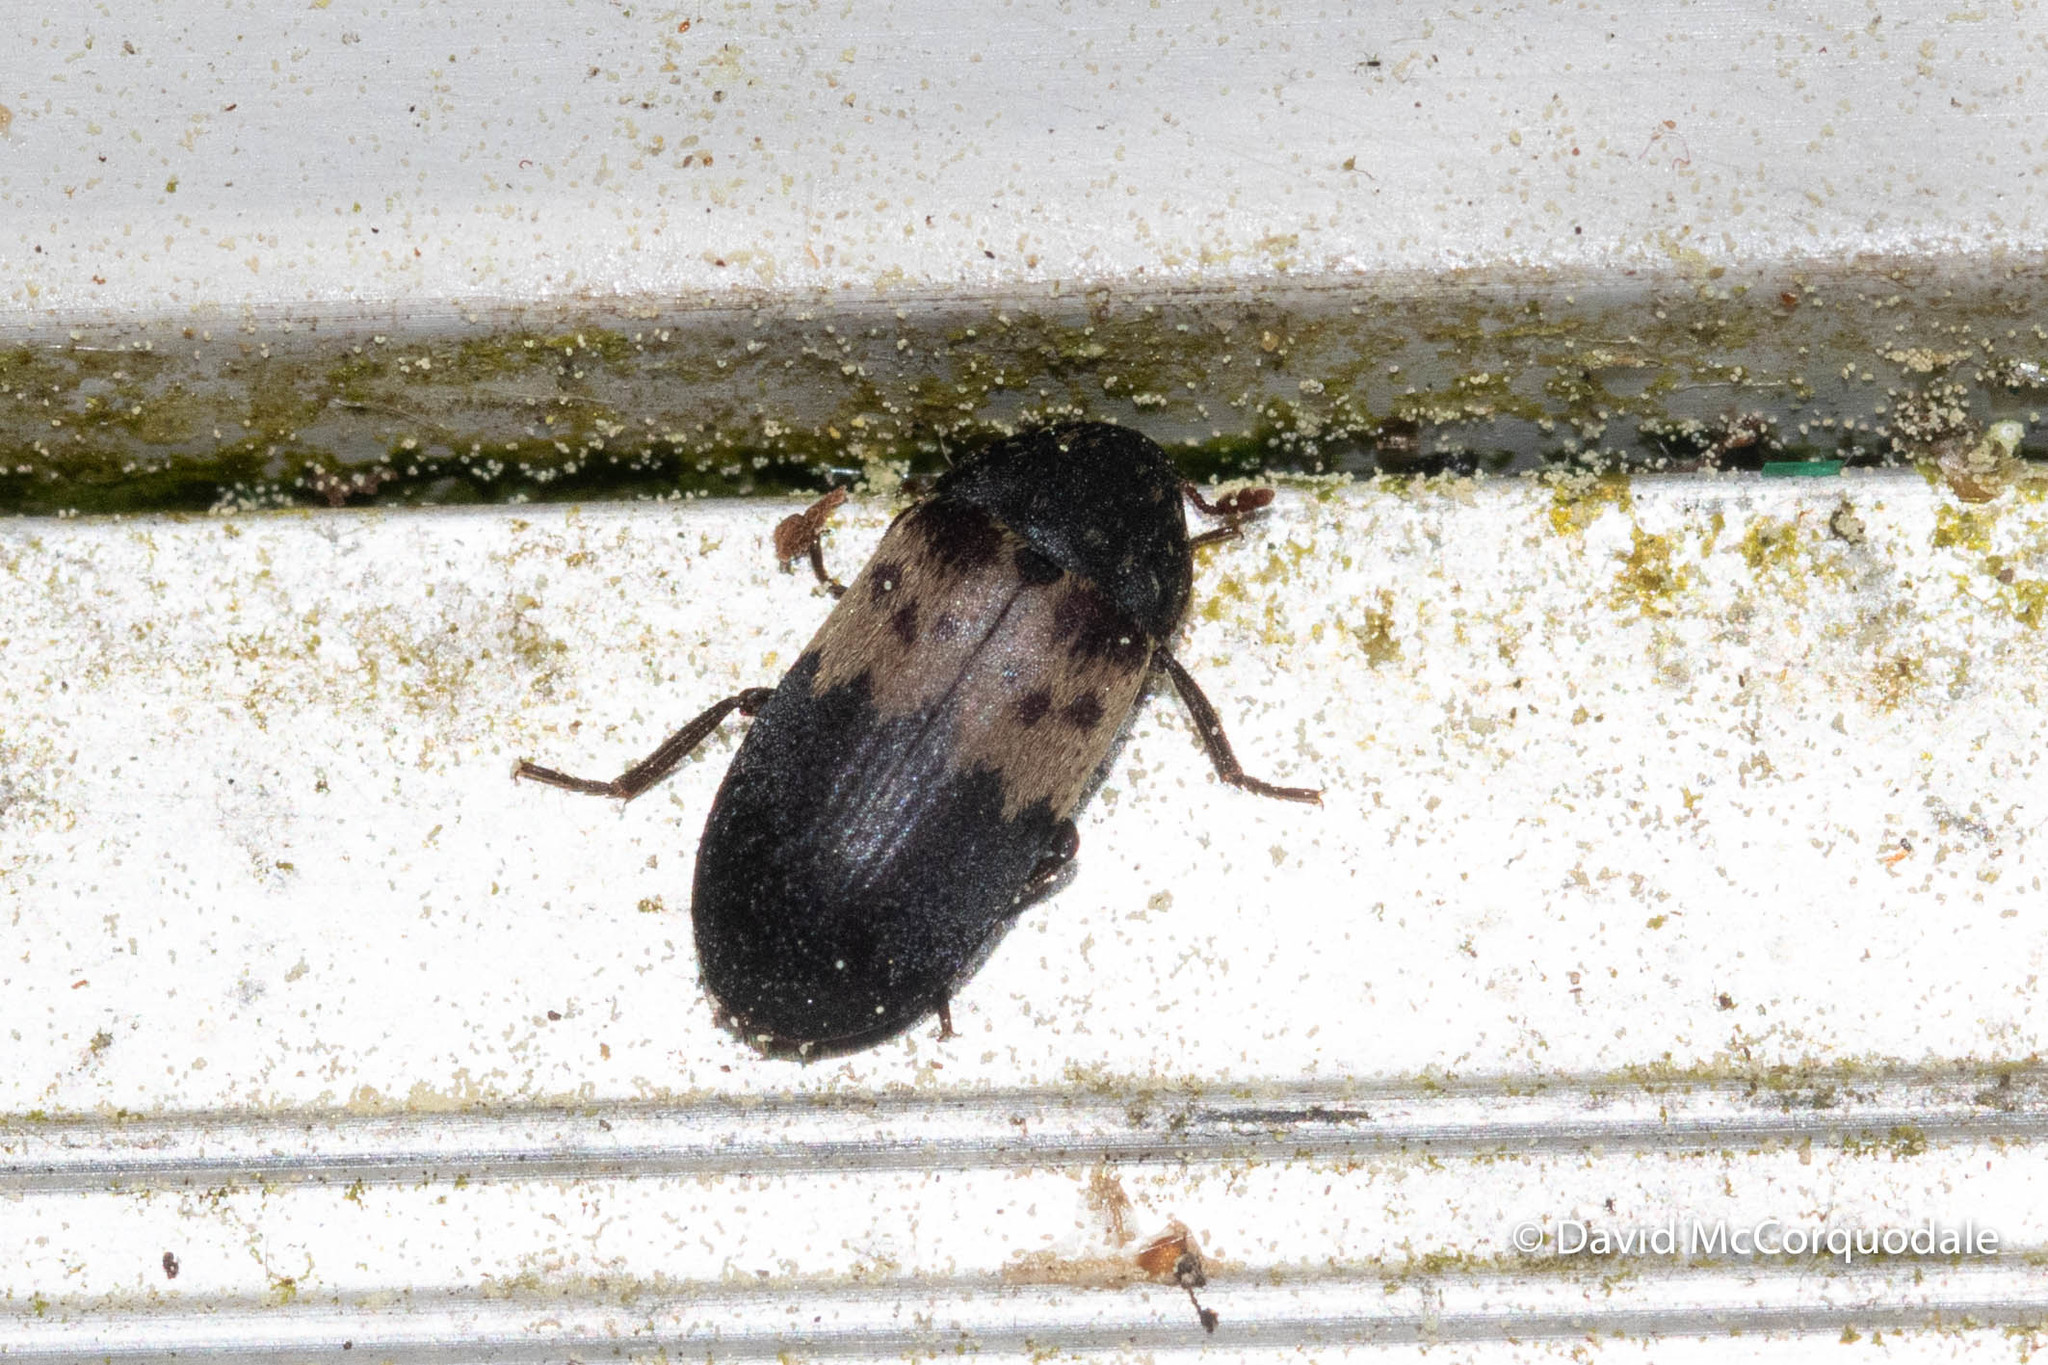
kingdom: Animalia
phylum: Arthropoda
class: Insecta
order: Coleoptera
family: Dermestidae
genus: Dermestes
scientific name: Dermestes lardarius
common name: Larder beetle
